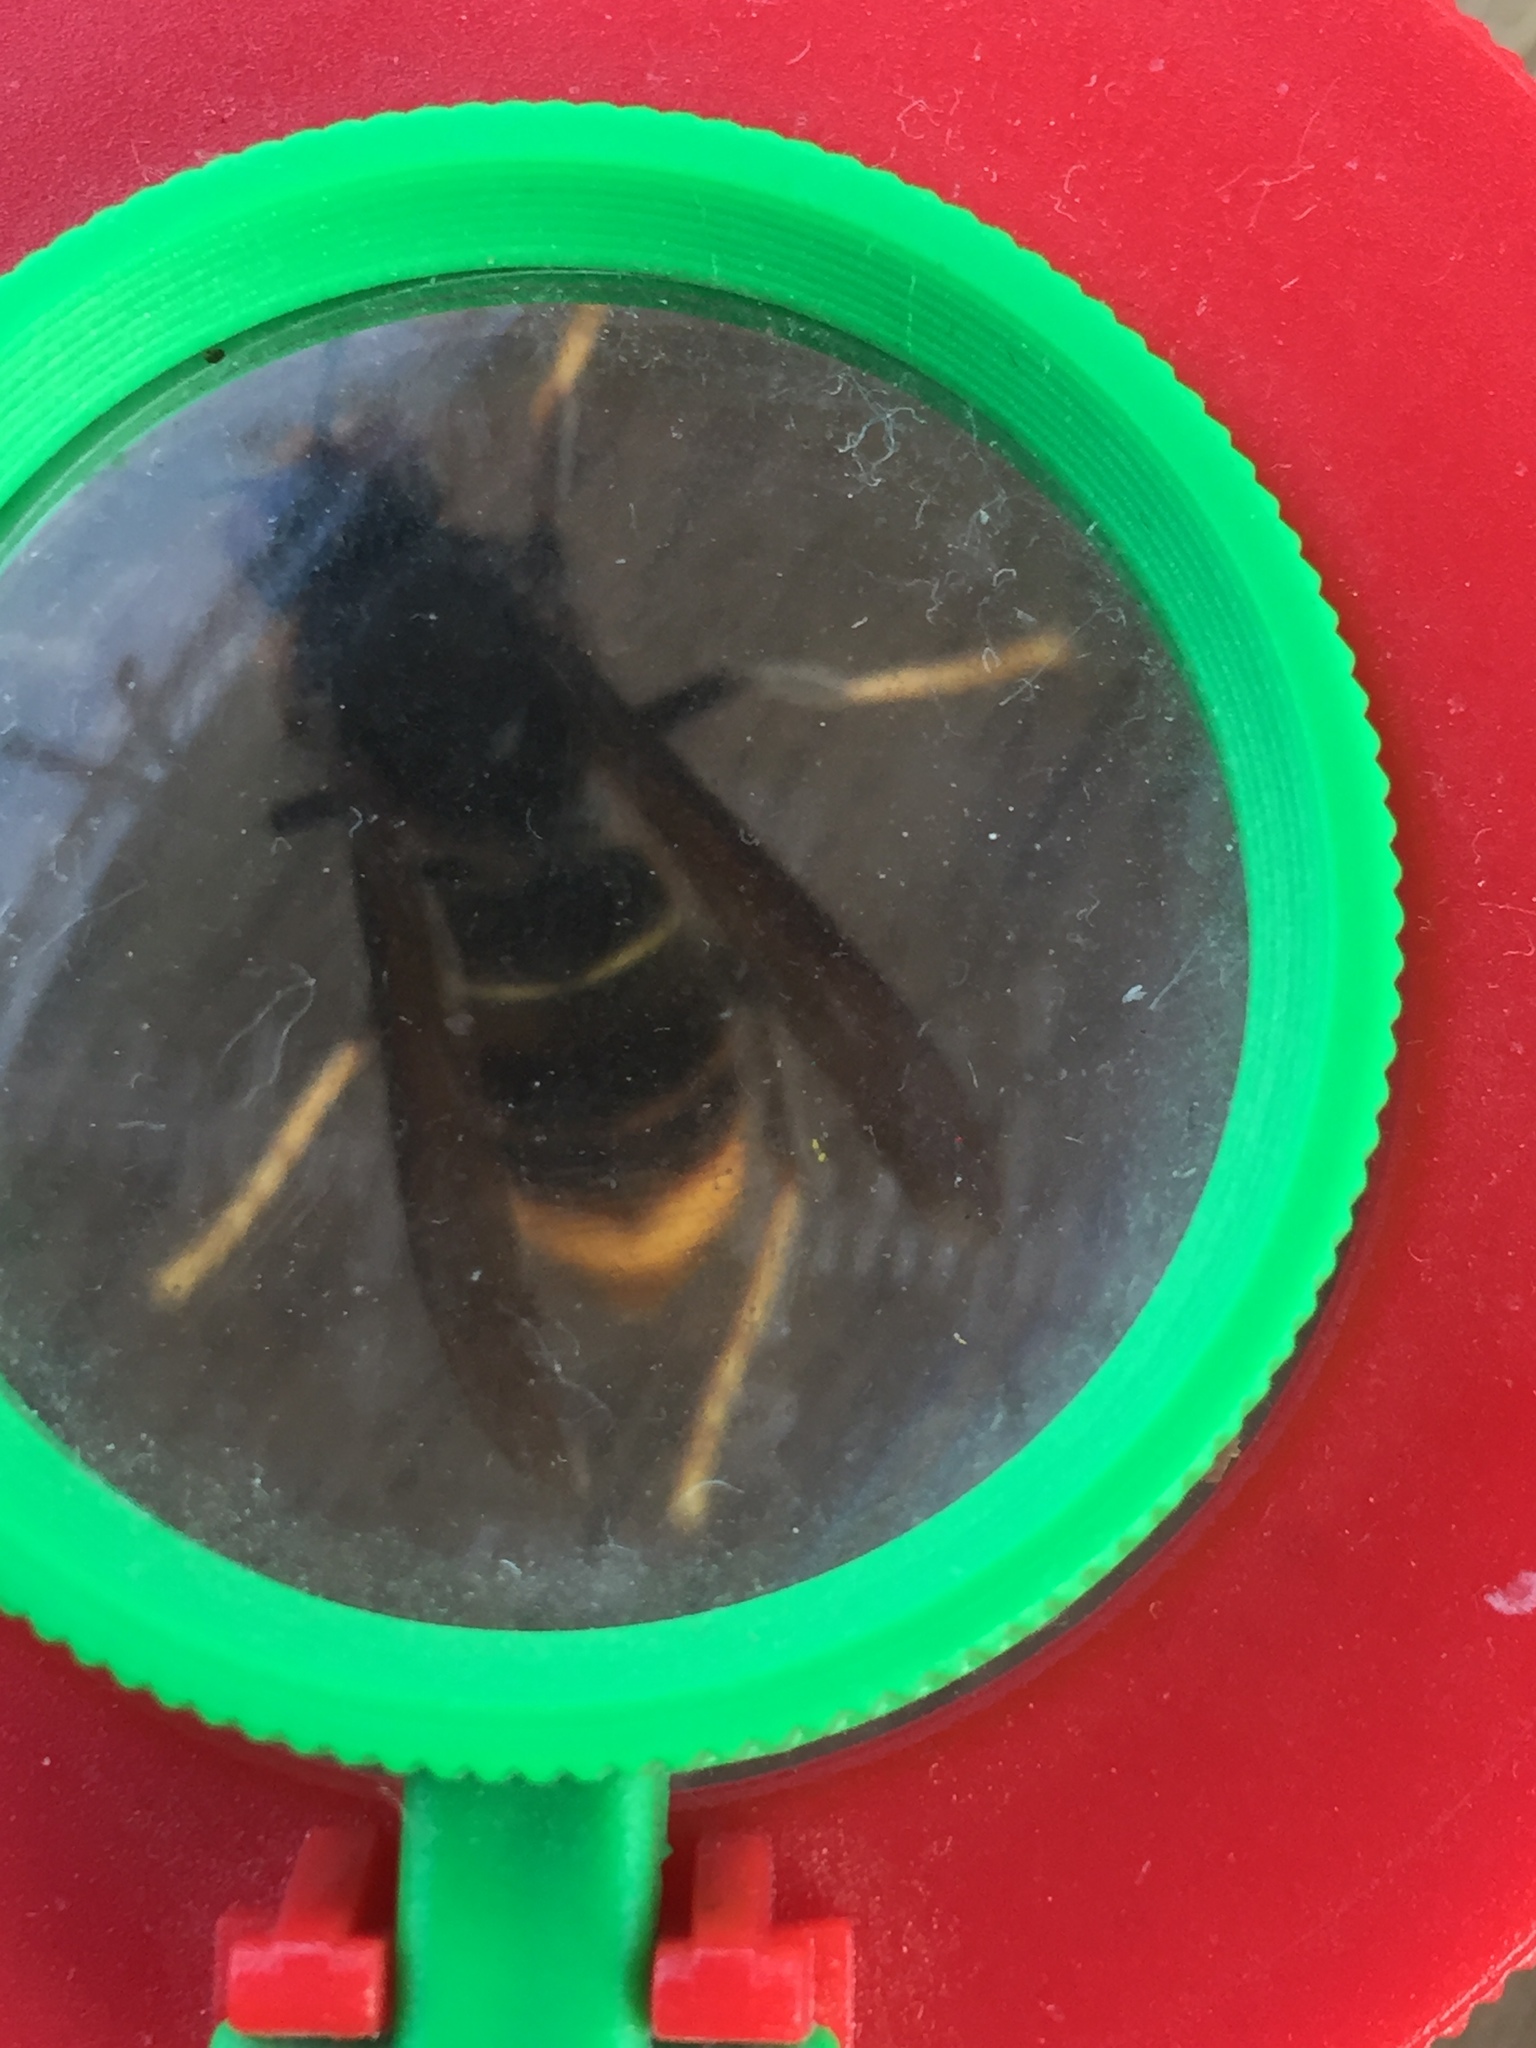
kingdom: Animalia
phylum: Arthropoda
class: Insecta
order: Hymenoptera
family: Vespidae
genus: Vespa
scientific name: Vespa velutina
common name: Asian hornet
